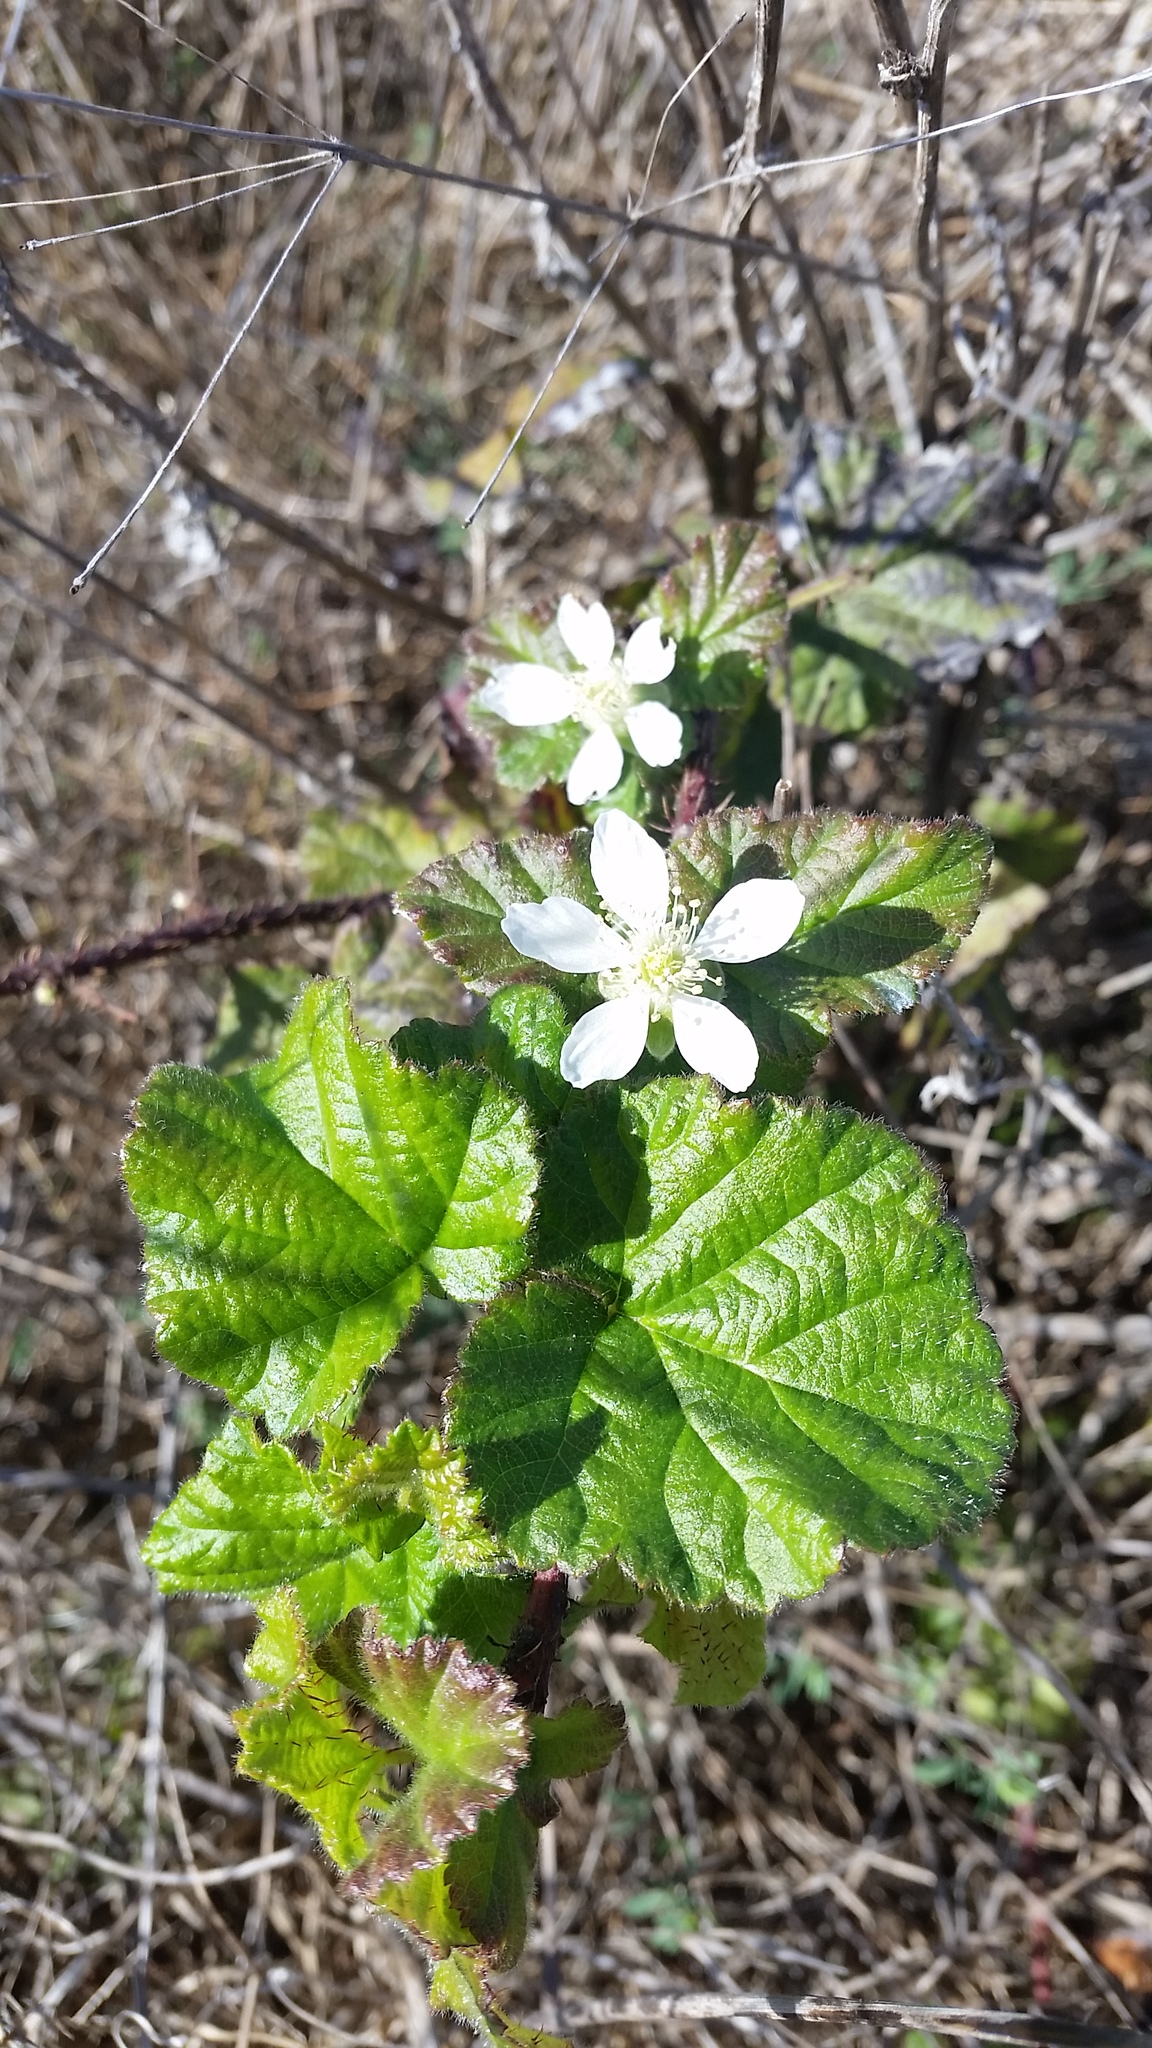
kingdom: Plantae
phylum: Tracheophyta
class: Magnoliopsida
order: Rosales
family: Rosaceae
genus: Rubus
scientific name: Rubus ursinus
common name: Pacific blackberry
